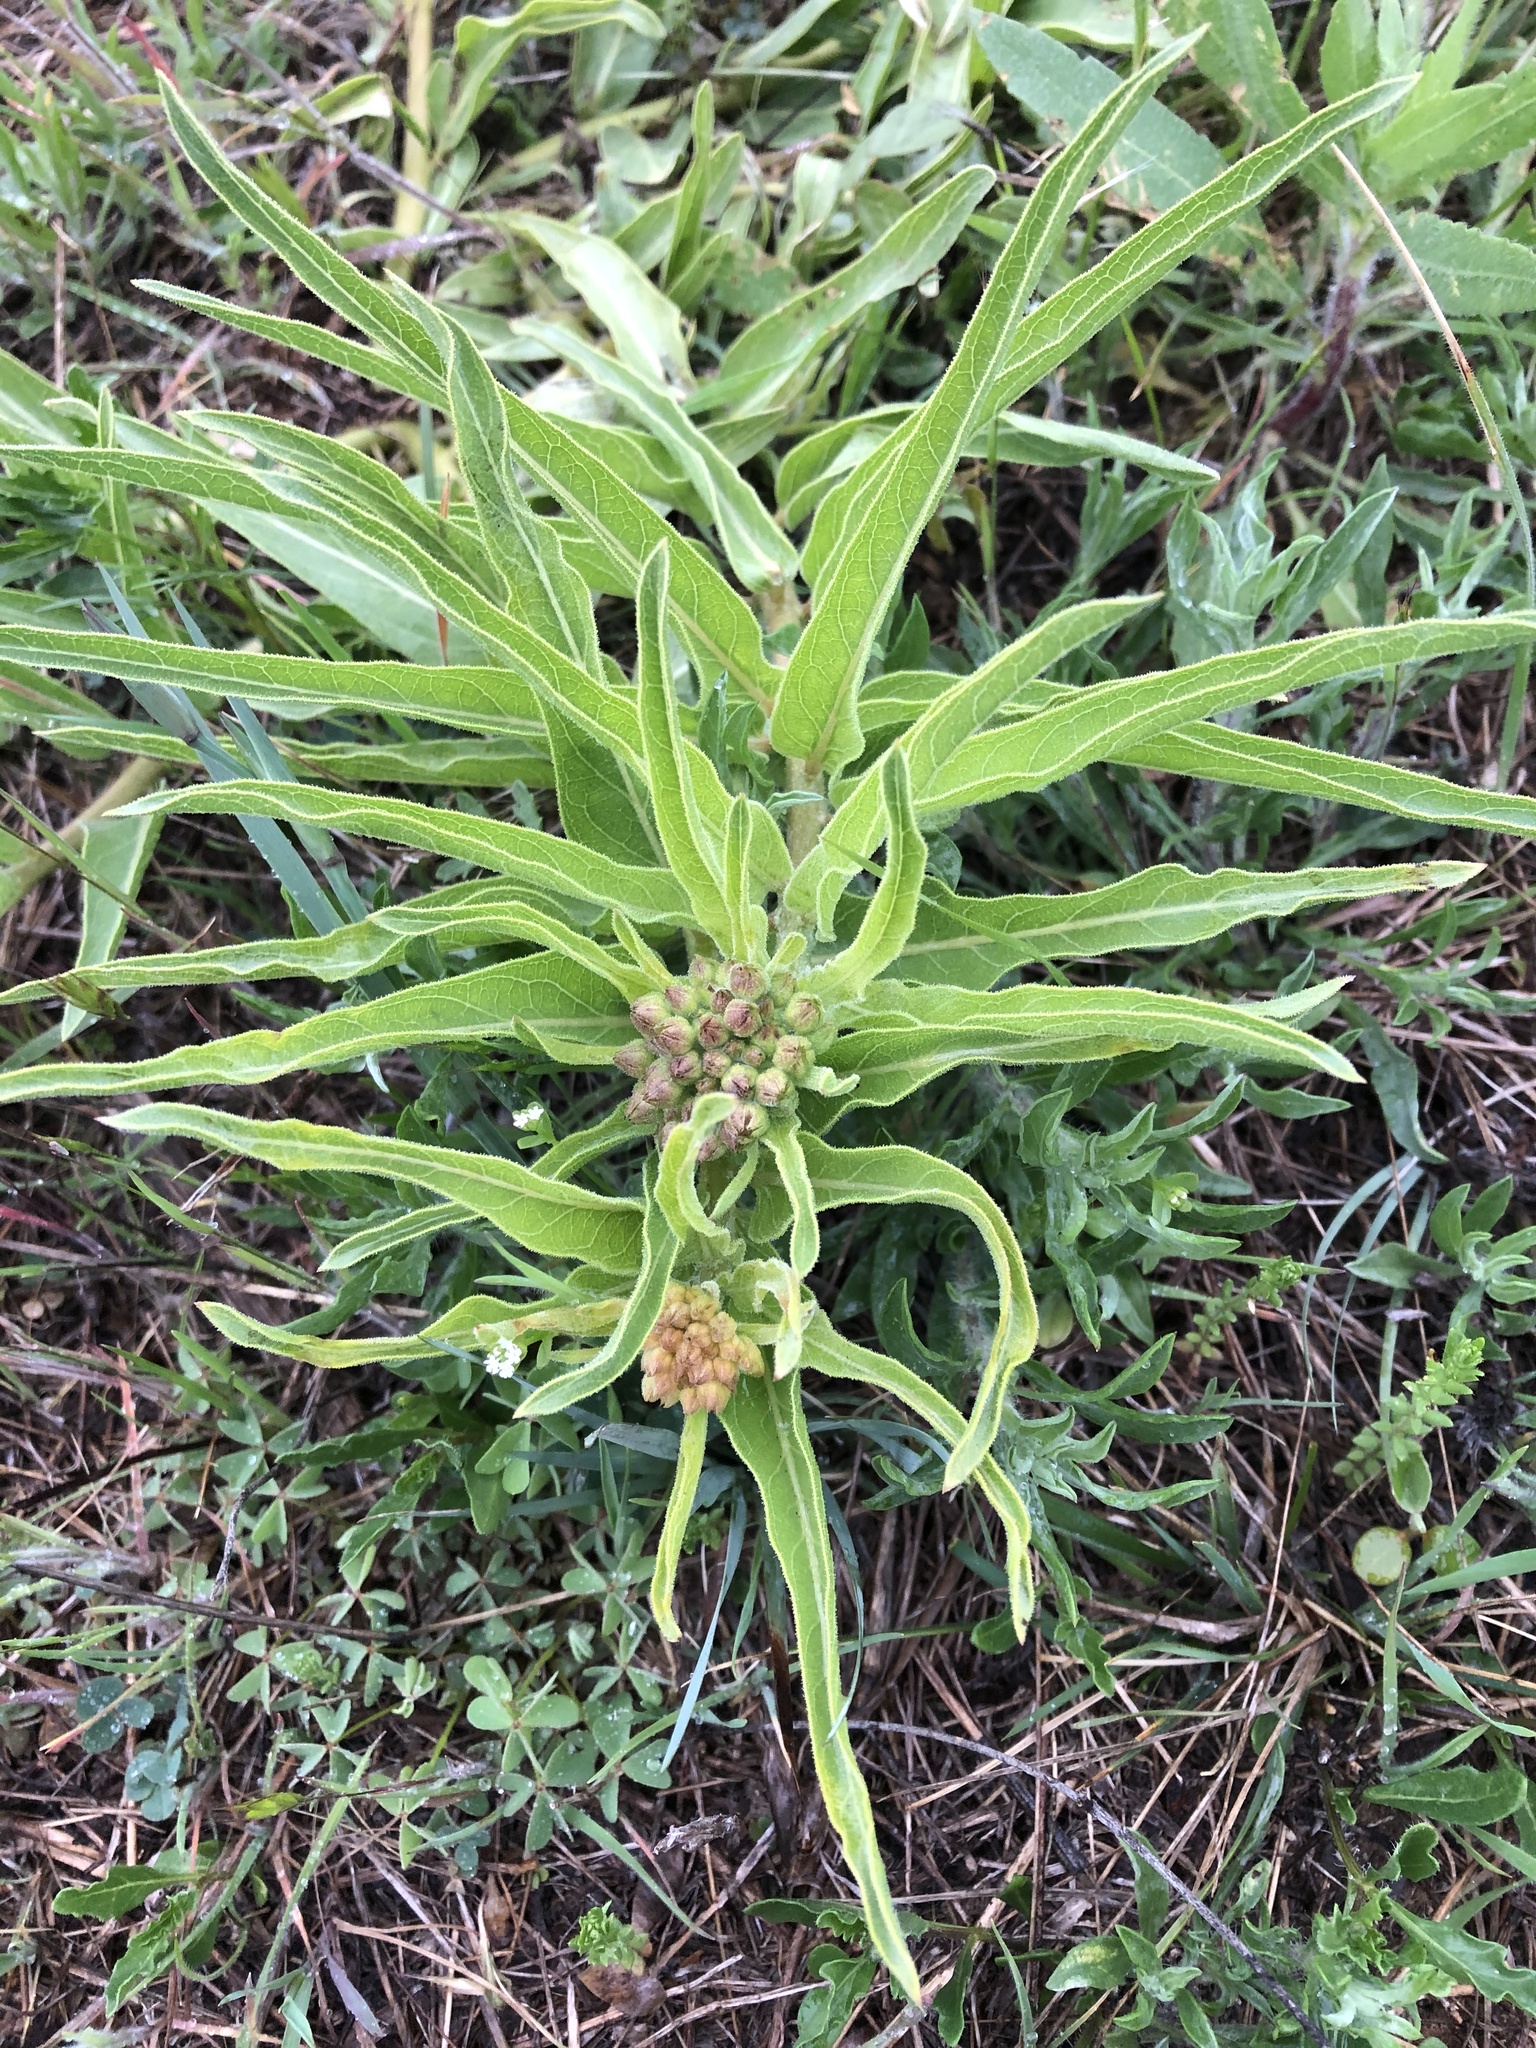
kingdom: Plantae
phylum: Tracheophyta
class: Magnoliopsida
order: Gentianales
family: Apocynaceae
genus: Asclepias
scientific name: Asclepias asperula
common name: Antelope horns
